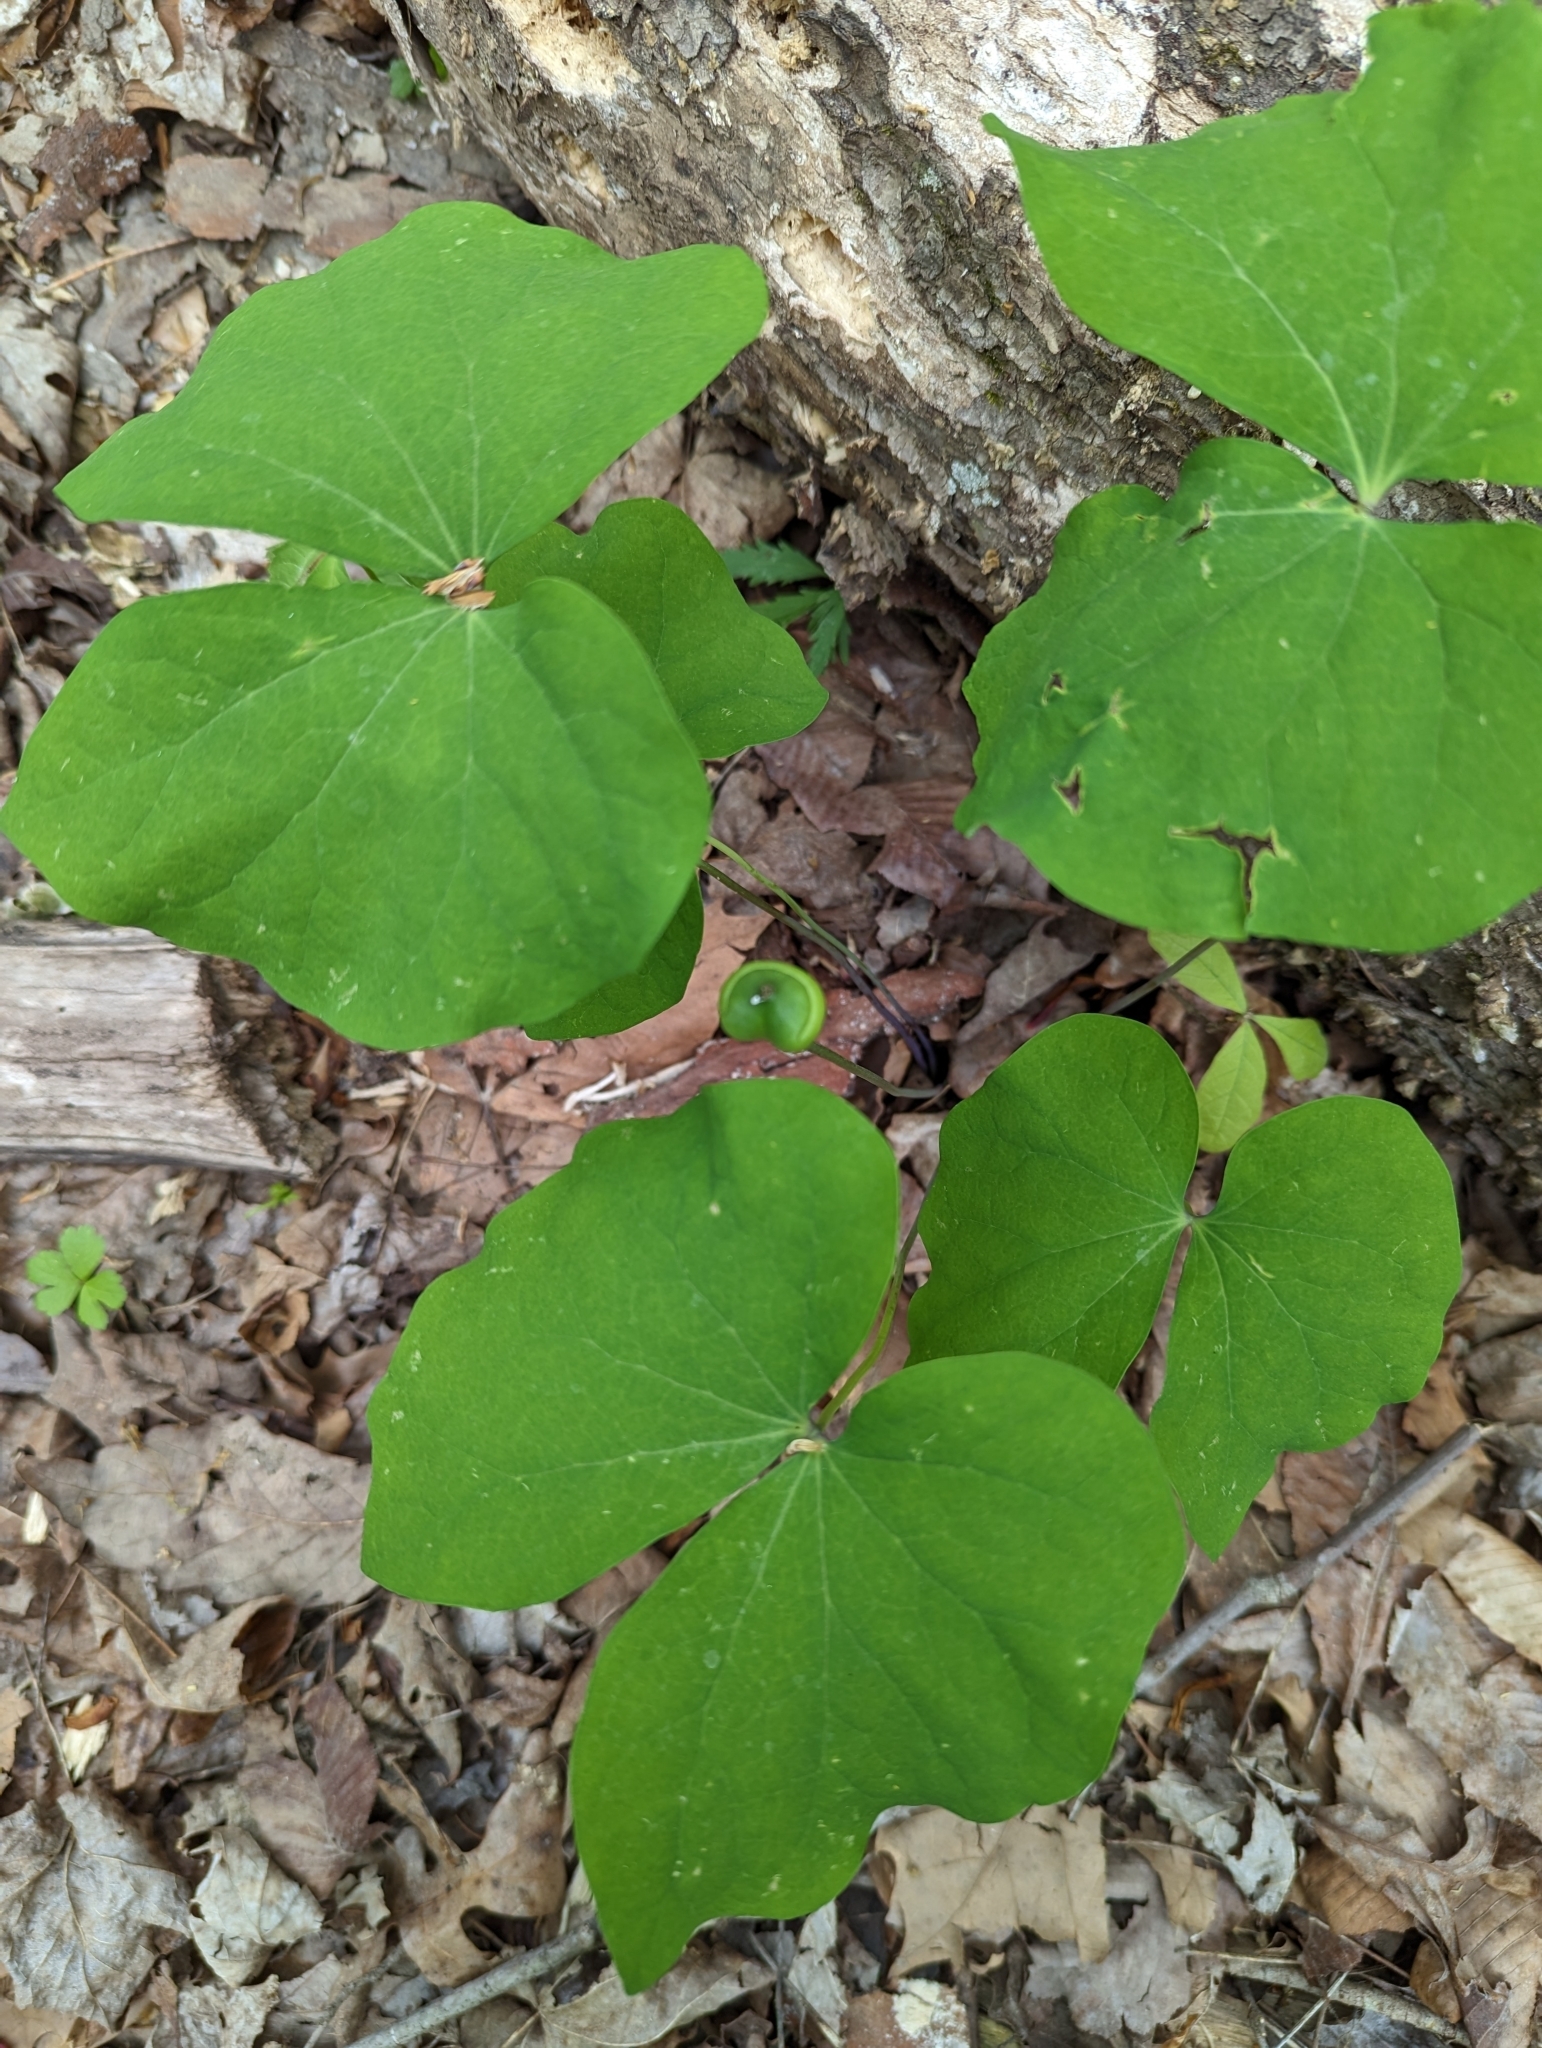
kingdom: Plantae
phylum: Tracheophyta
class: Magnoliopsida
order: Ranunculales
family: Berberidaceae
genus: Jeffersonia
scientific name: Jeffersonia diphylla
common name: Rheumatism-root
